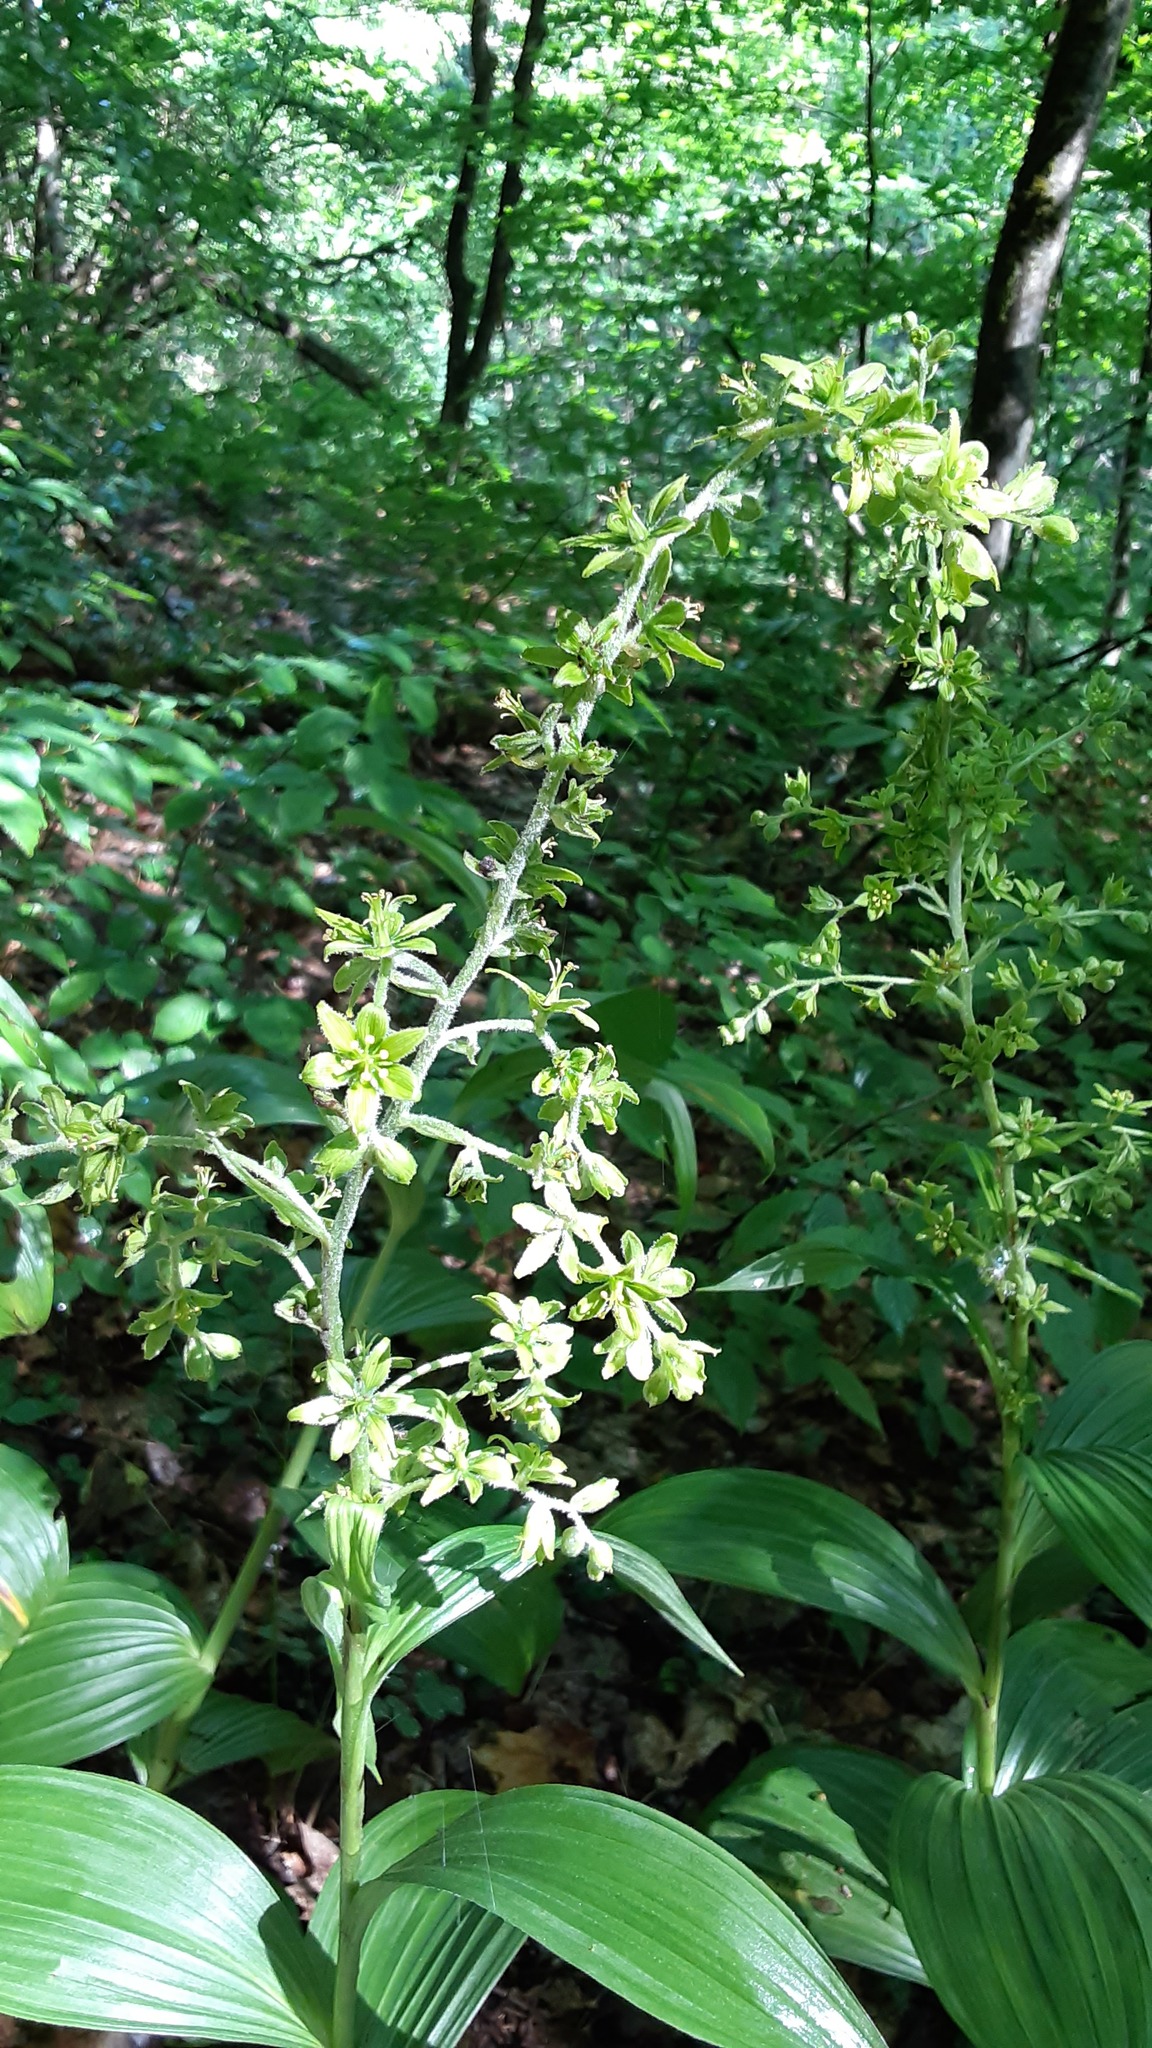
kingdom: Plantae
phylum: Tracheophyta
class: Liliopsida
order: Liliales
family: Melanthiaceae
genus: Veratrum
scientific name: Veratrum viride
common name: American false hellebore
